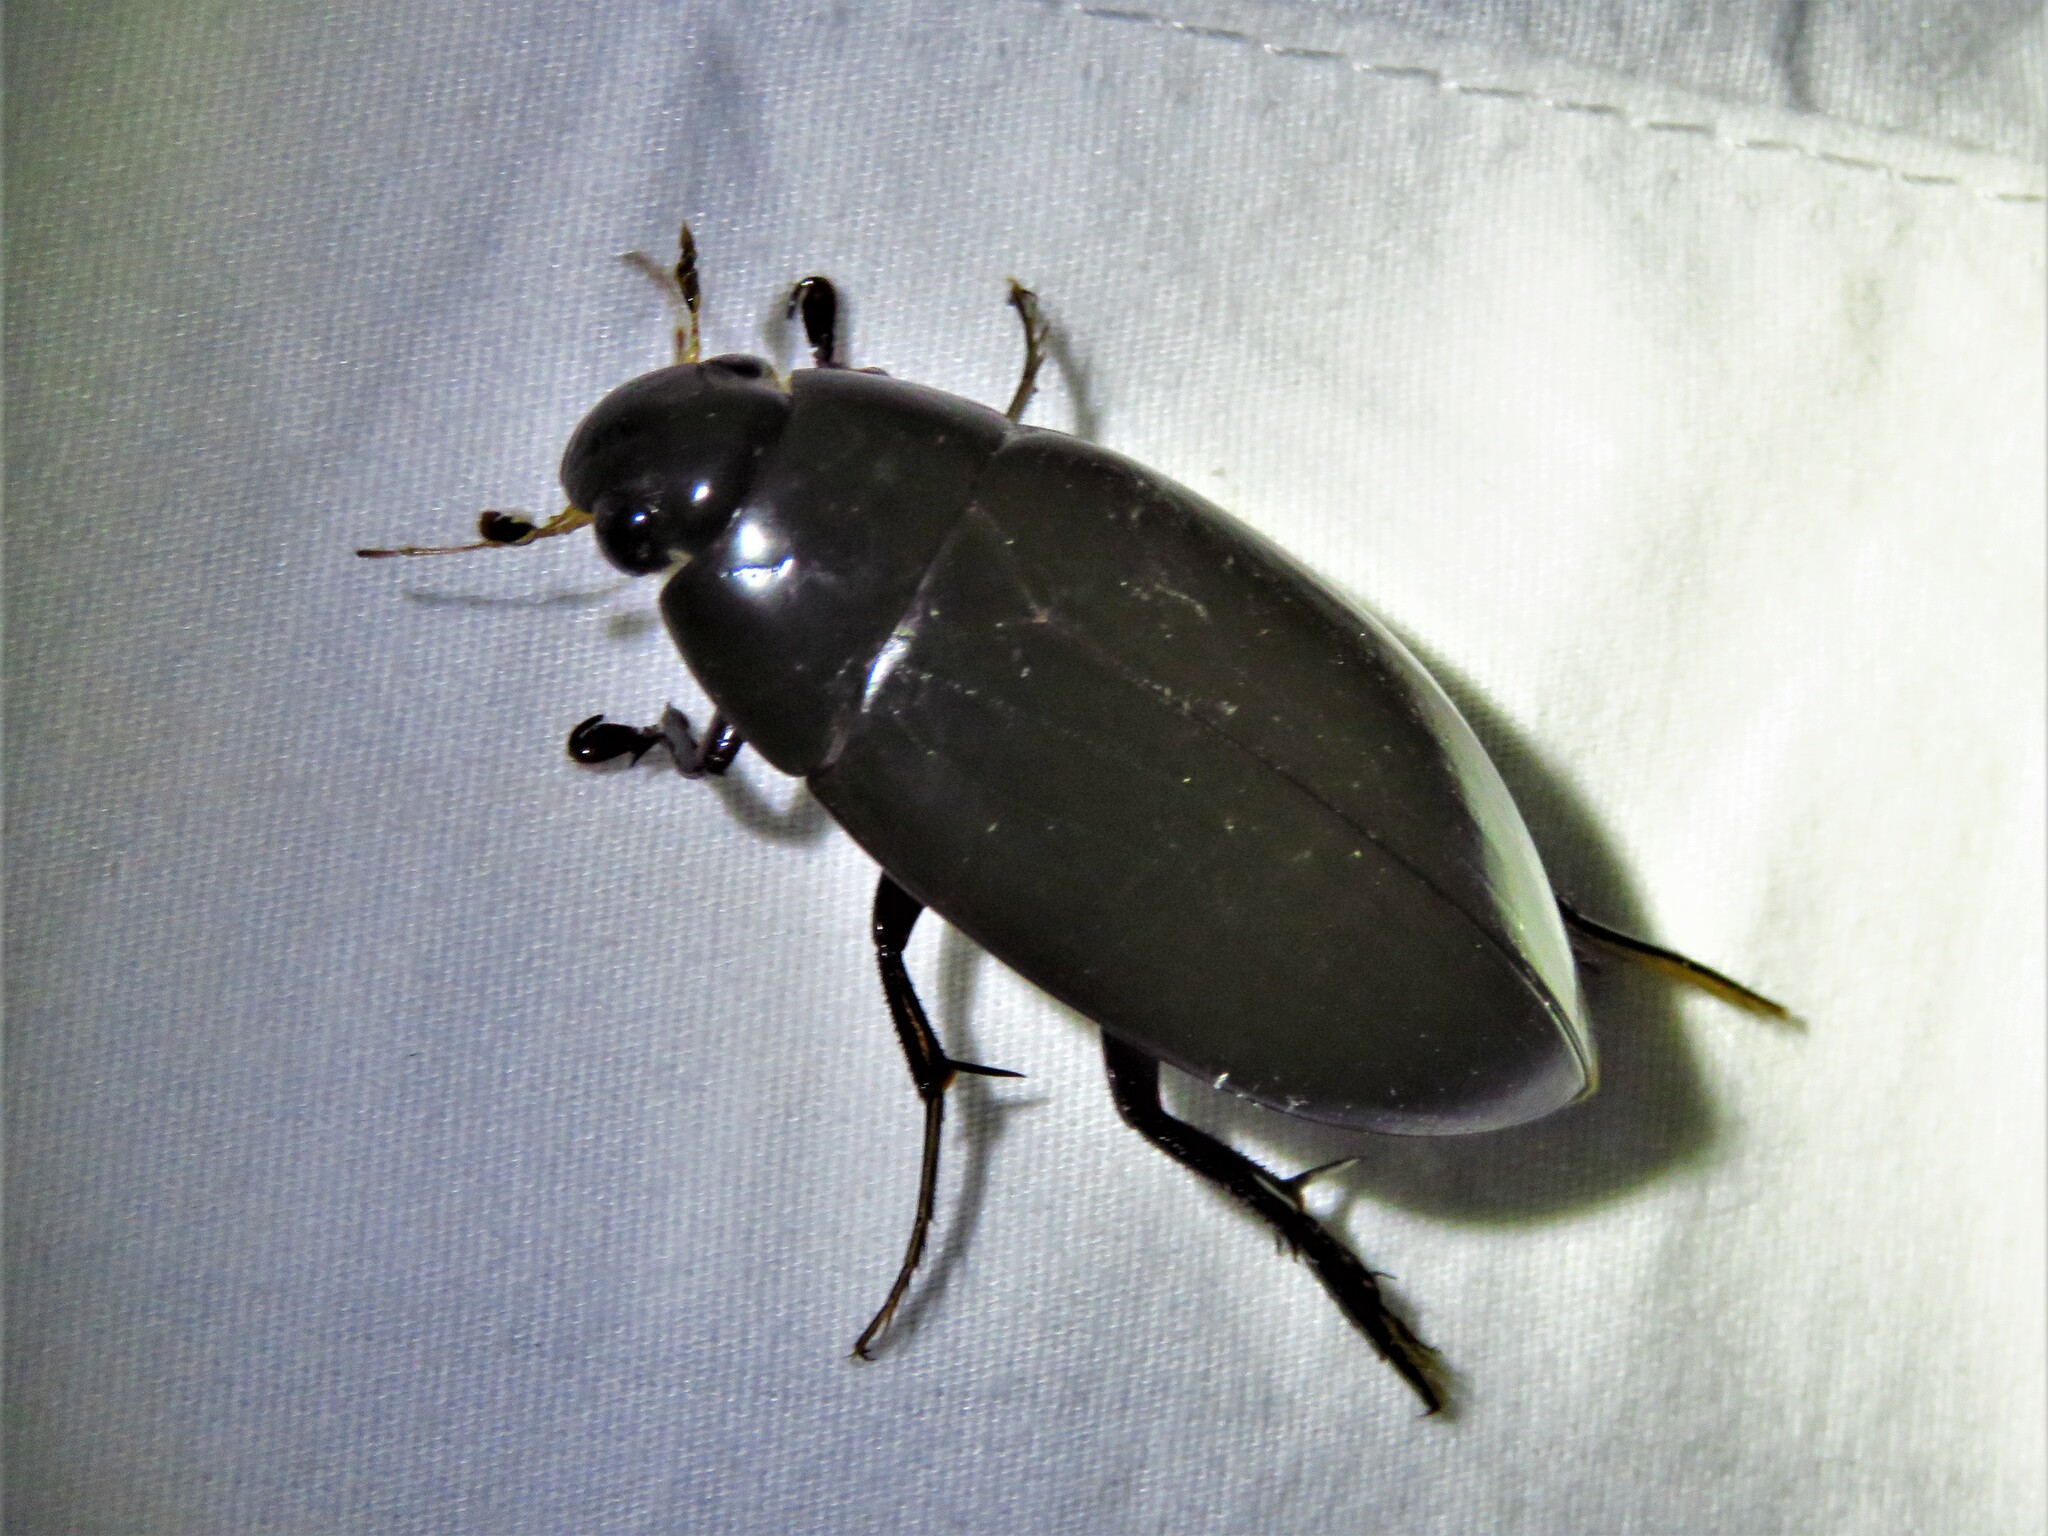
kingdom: Animalia
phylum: Arthropoda
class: Insecta
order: Coleoptera
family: Hydrophilidae
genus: Hydrophilus
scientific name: Hydrophilus triangularis
